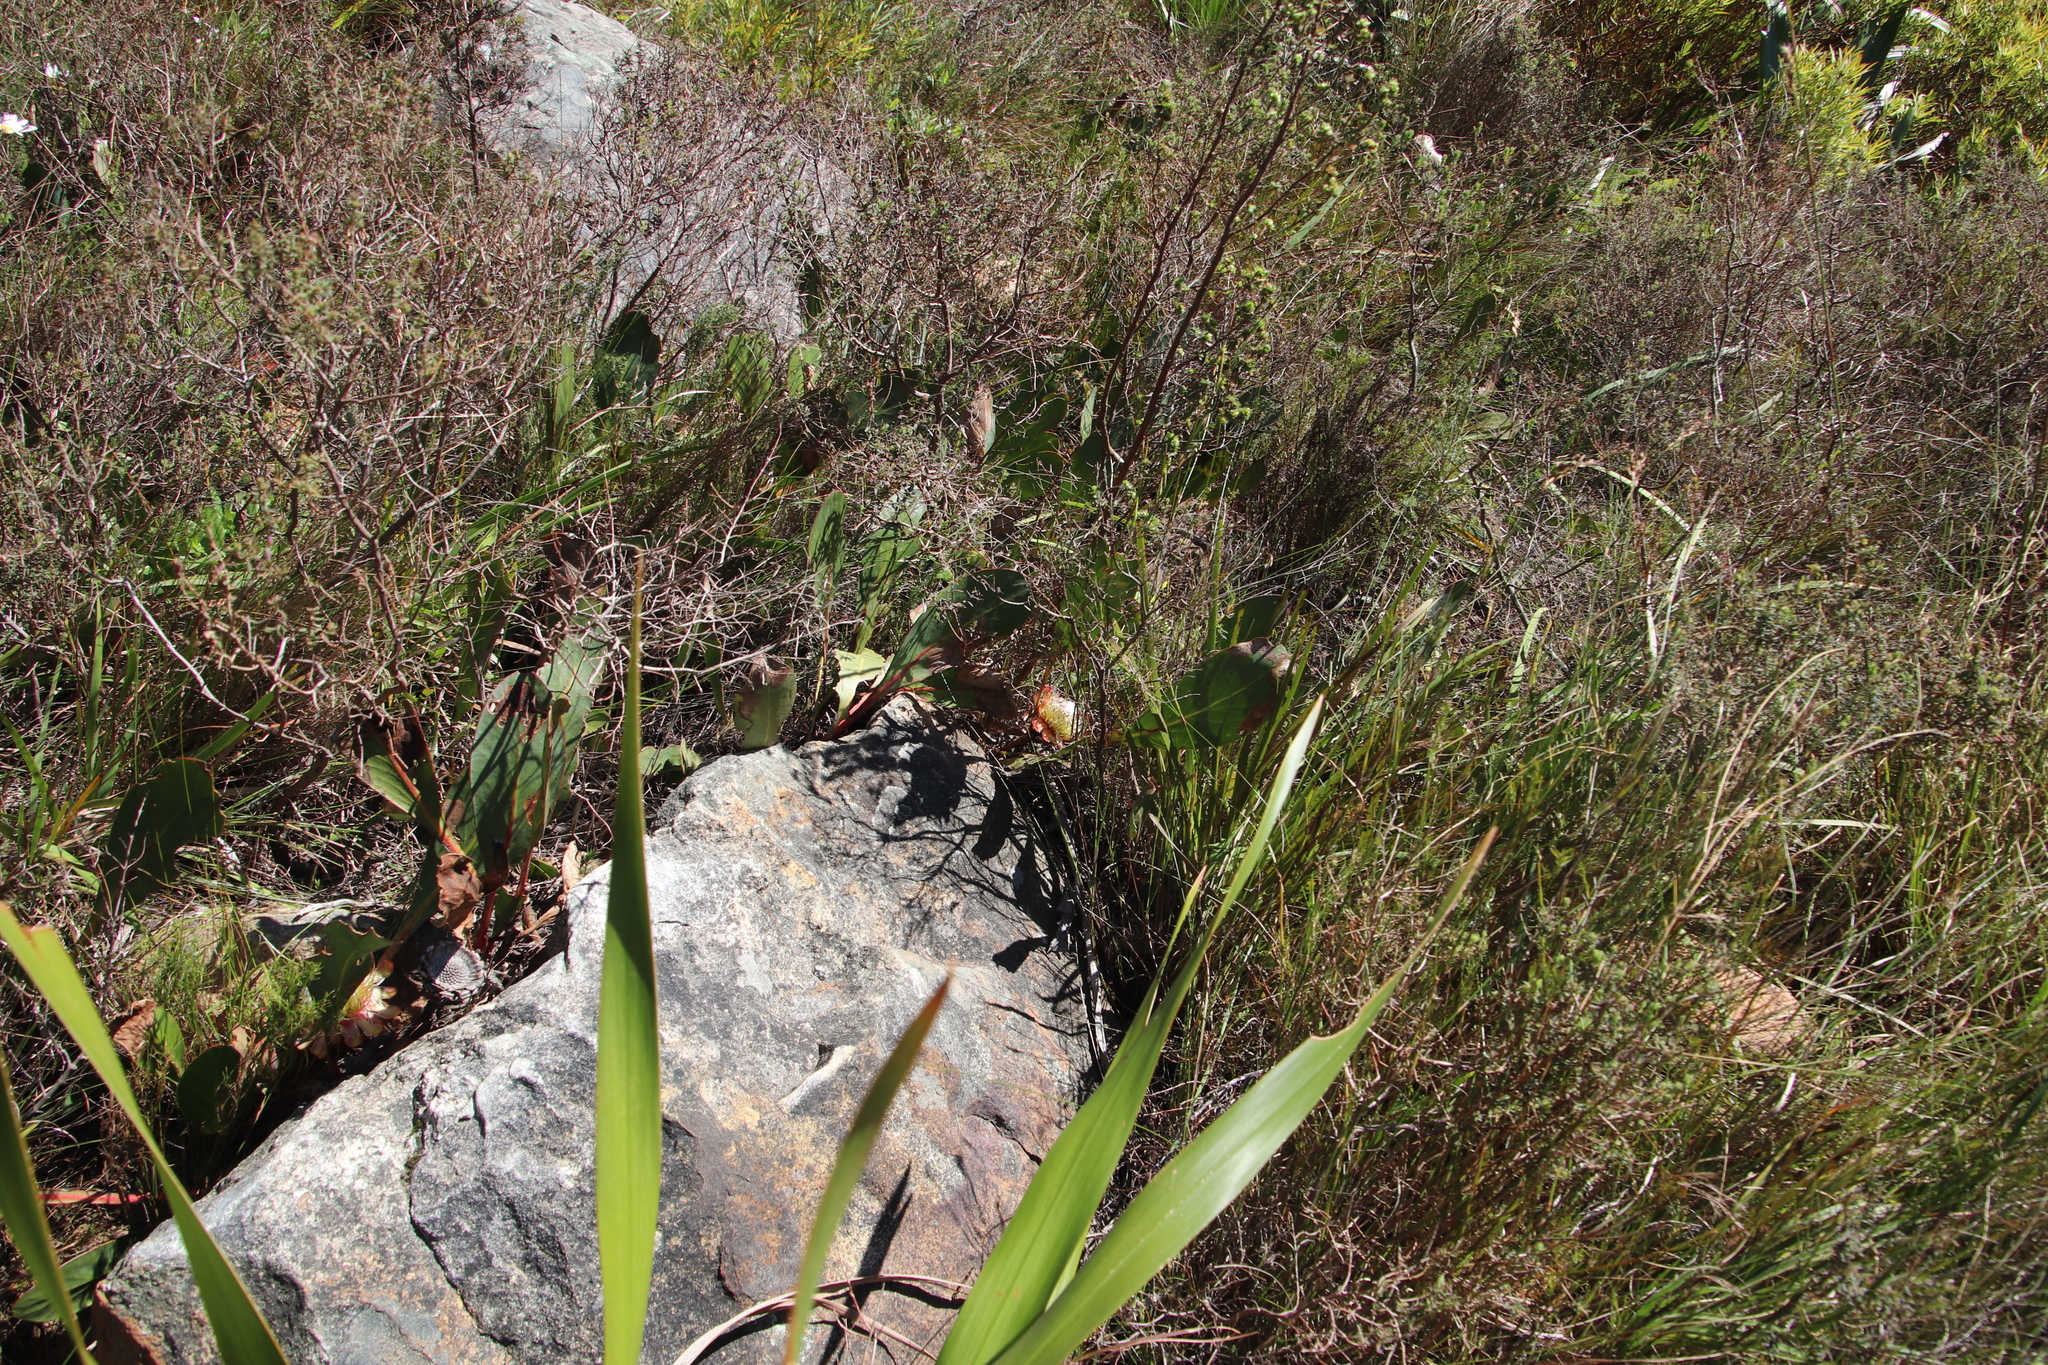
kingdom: Plantae
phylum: Tracheophyta
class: Magnoliopsida
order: Proteales
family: Proteaceae
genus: Protea
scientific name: Protea acaulos
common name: Common ground sugarbush
